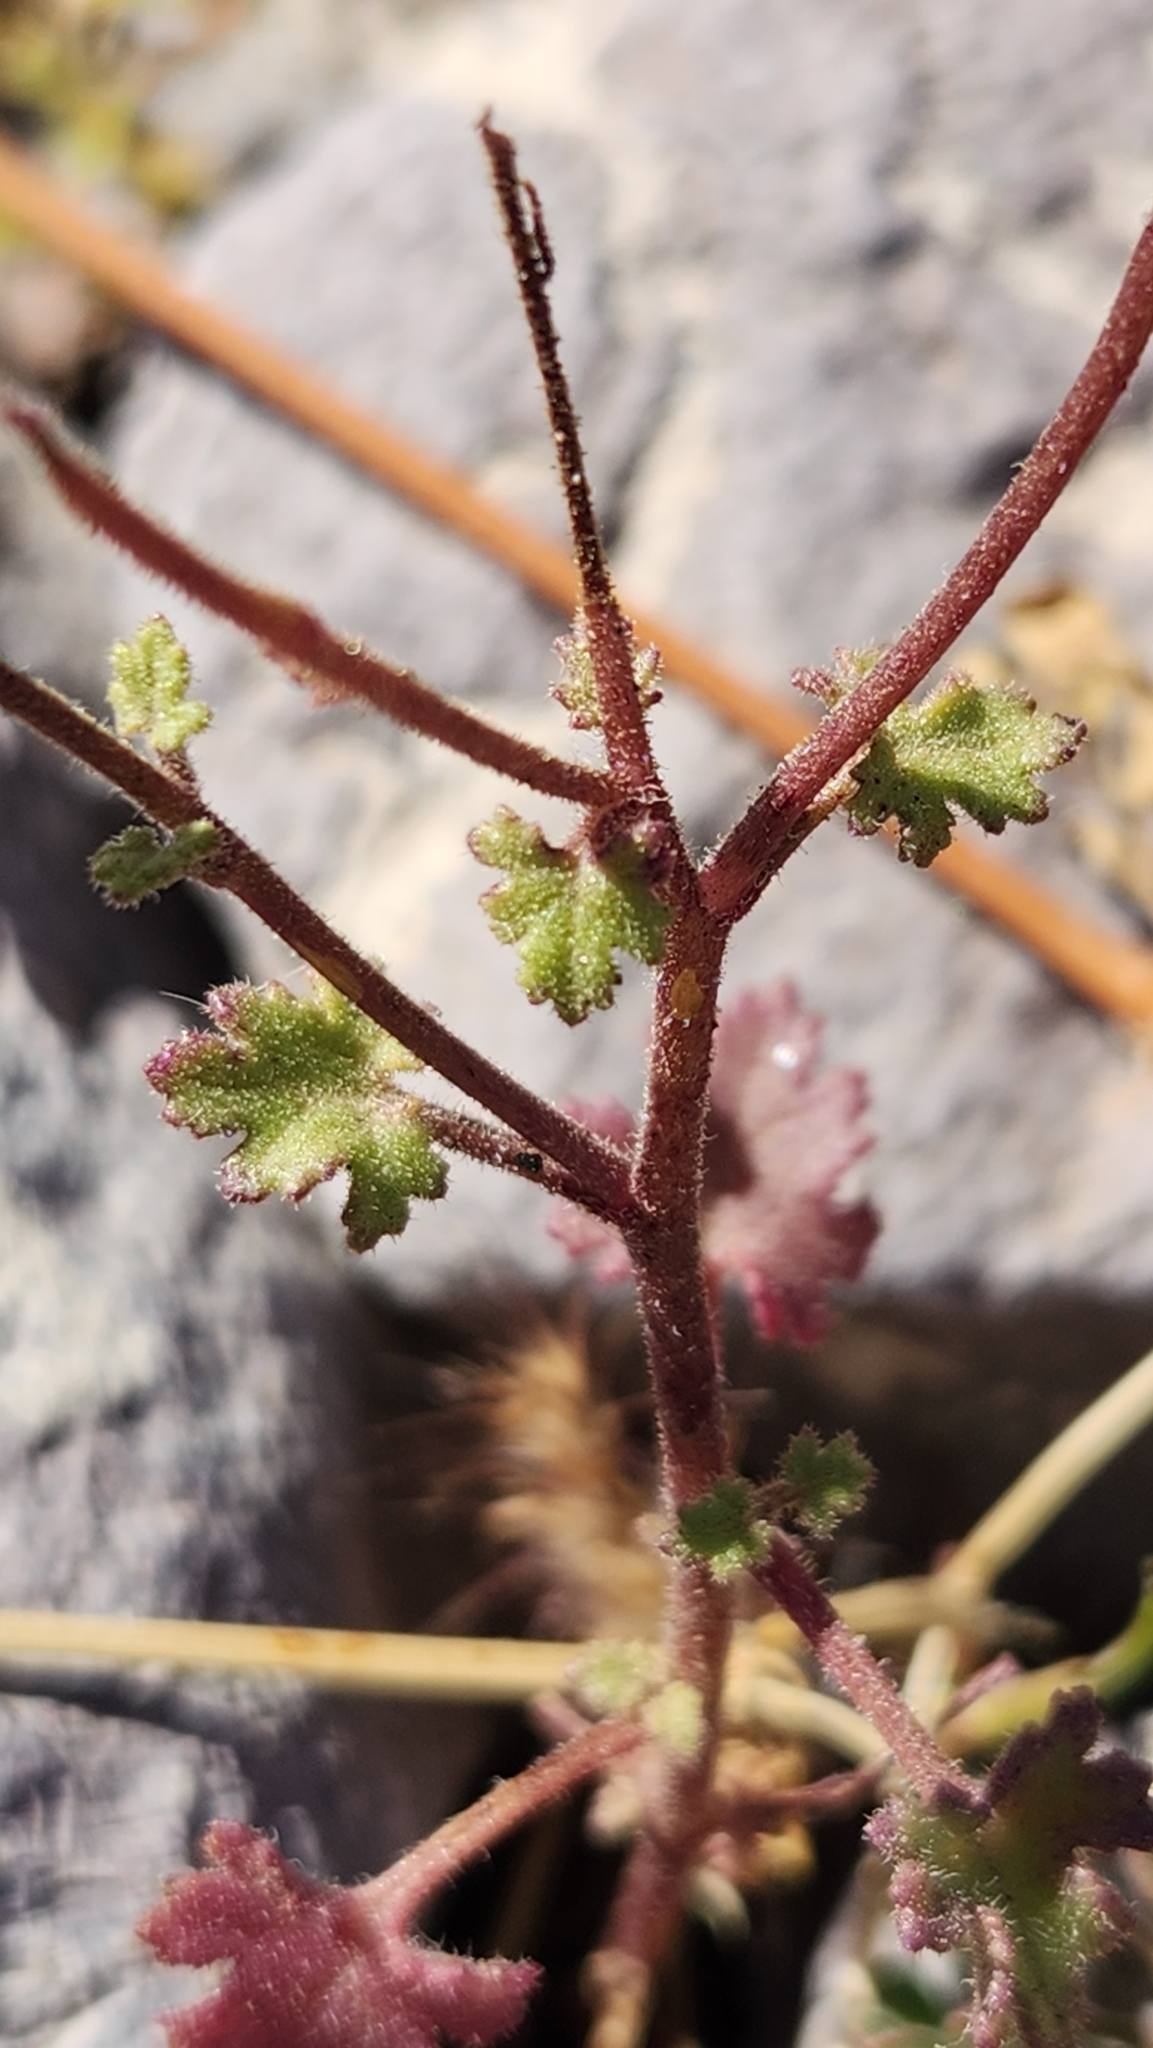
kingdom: Plantae
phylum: Tracheophyta
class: Magnoliopsida
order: Asterales
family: Asteraceae
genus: Laphamia
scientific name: Laphamia emoryi
